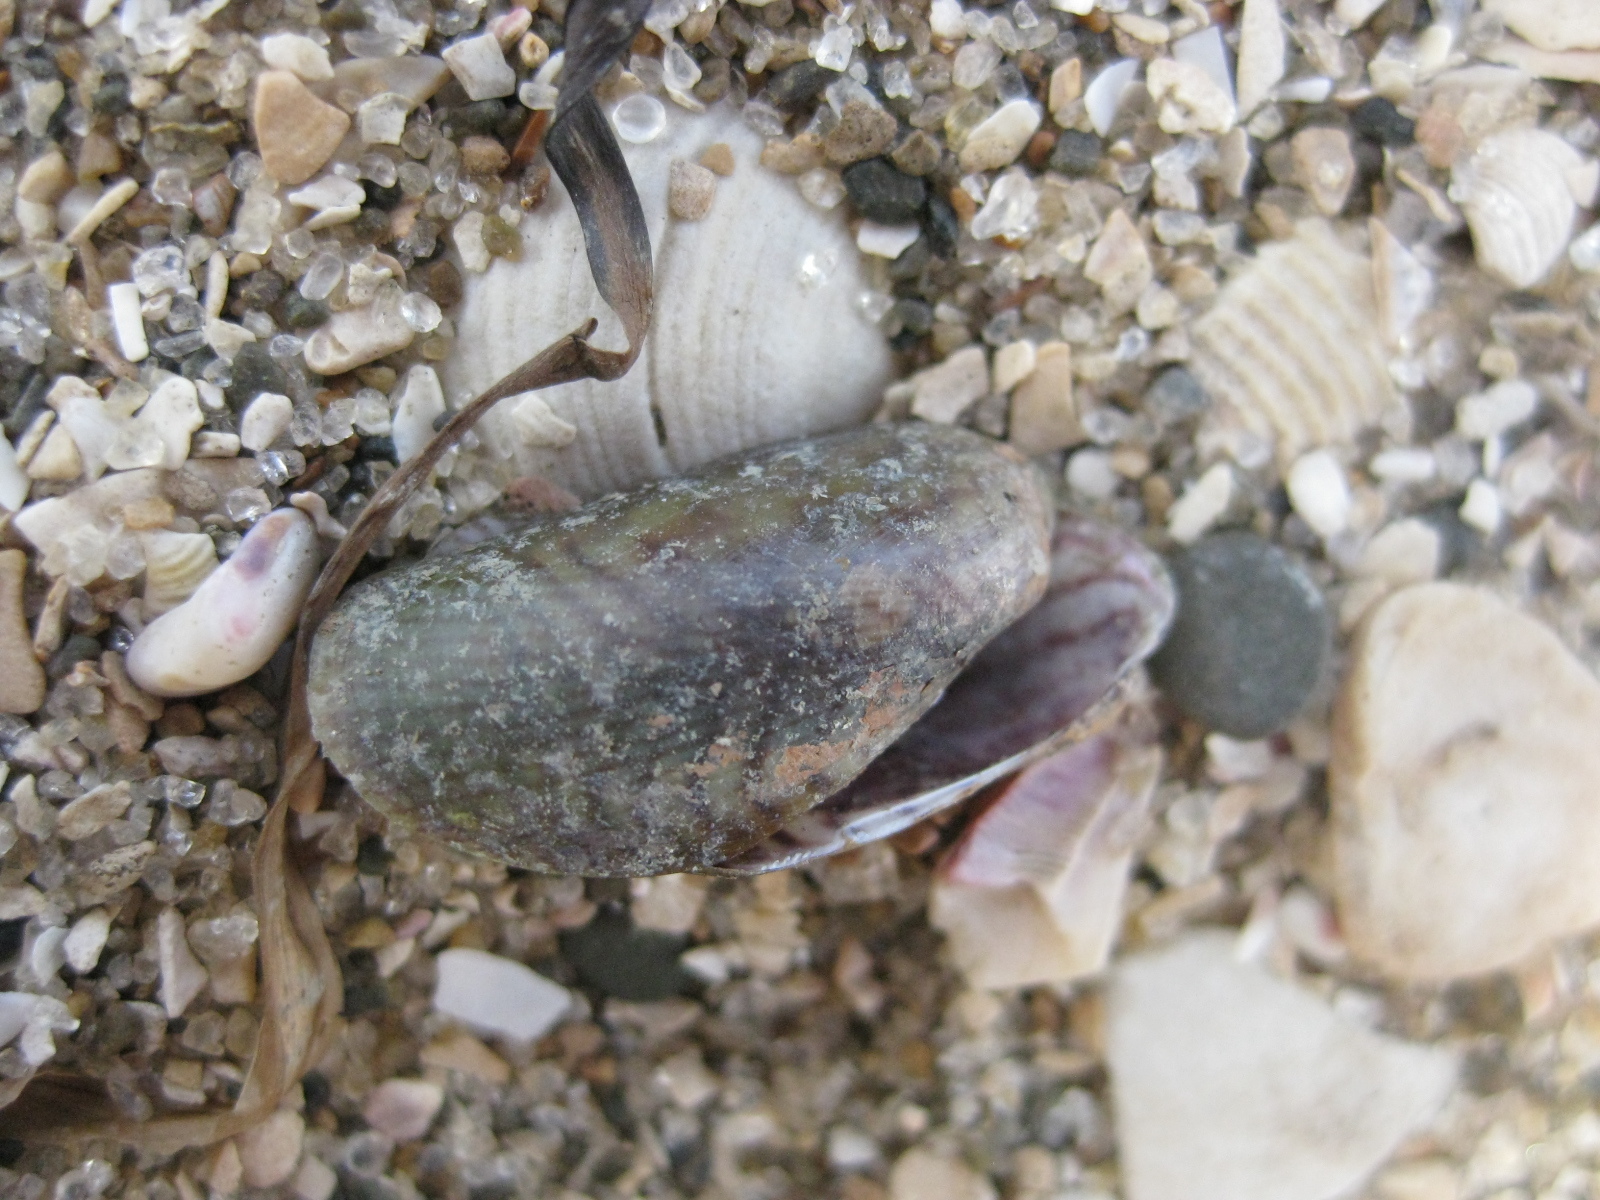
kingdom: Animalia
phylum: Mollusca
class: Bivalvia
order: Mytilida
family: Mytilidae
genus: Arcuatula
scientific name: Arcuatula senhousia
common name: Asian mussel
